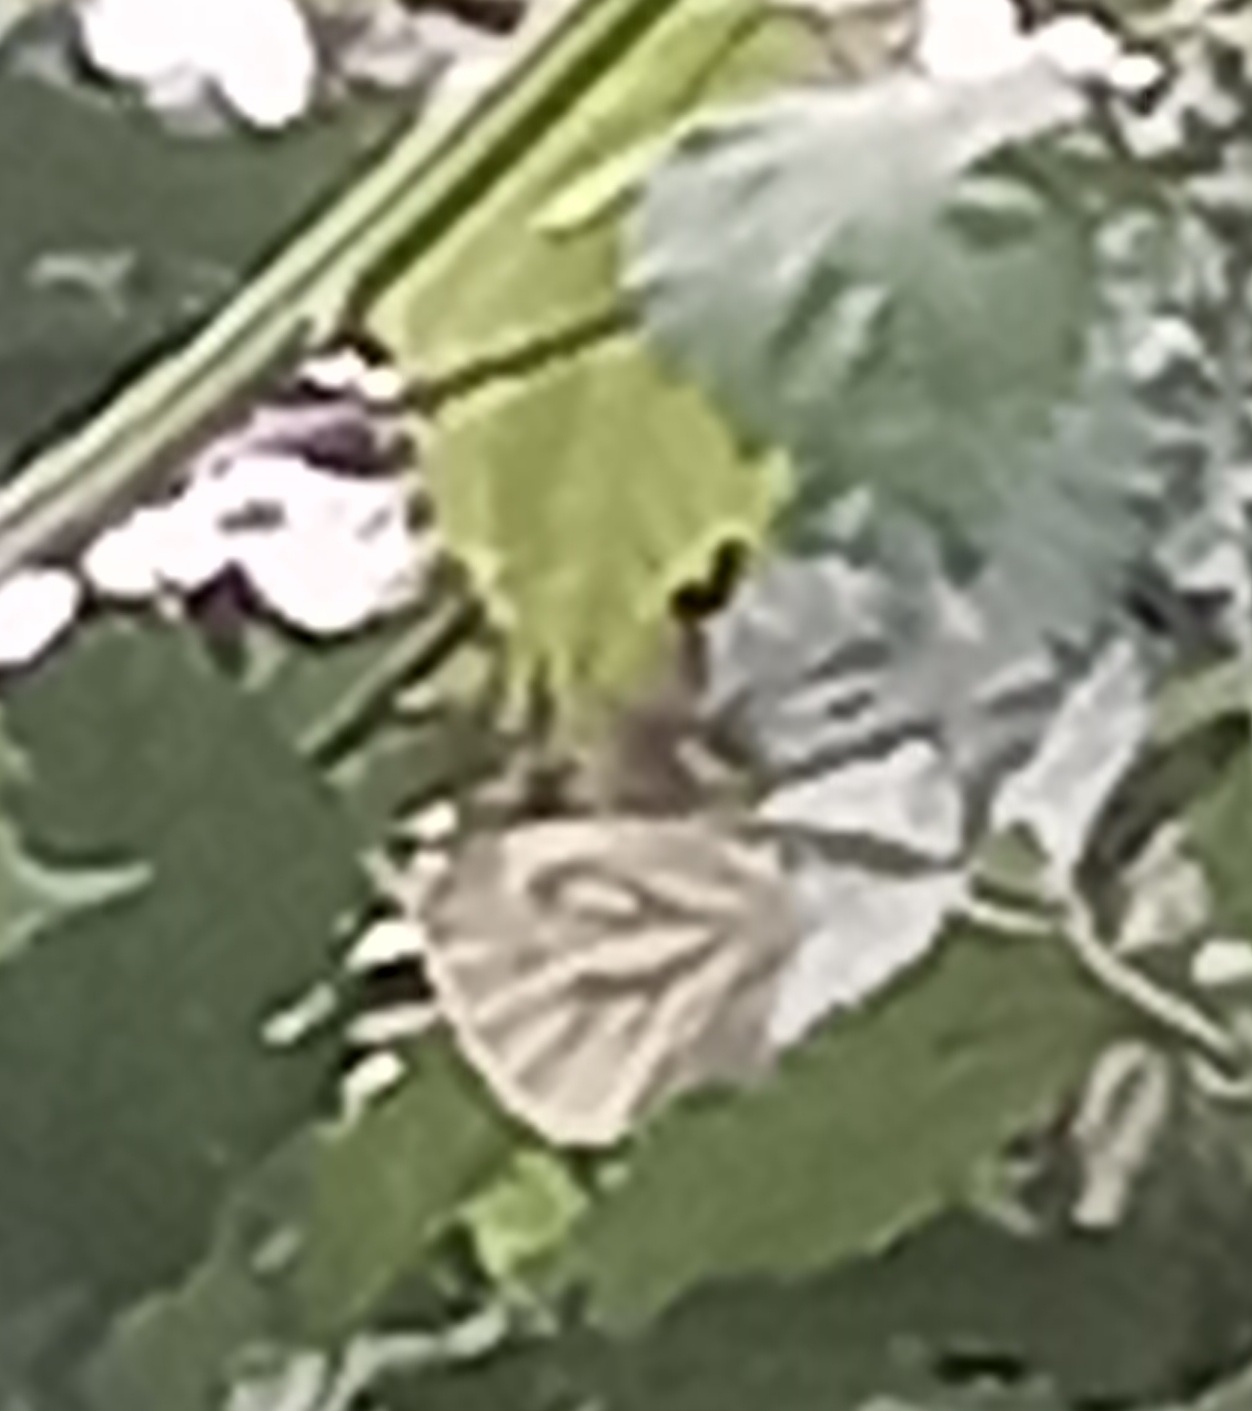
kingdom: Animalia
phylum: Arthropoda
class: Insecta
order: Lepidoptera
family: Pieridae
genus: Pieris
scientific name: Pieris napi
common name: Green-veined white
